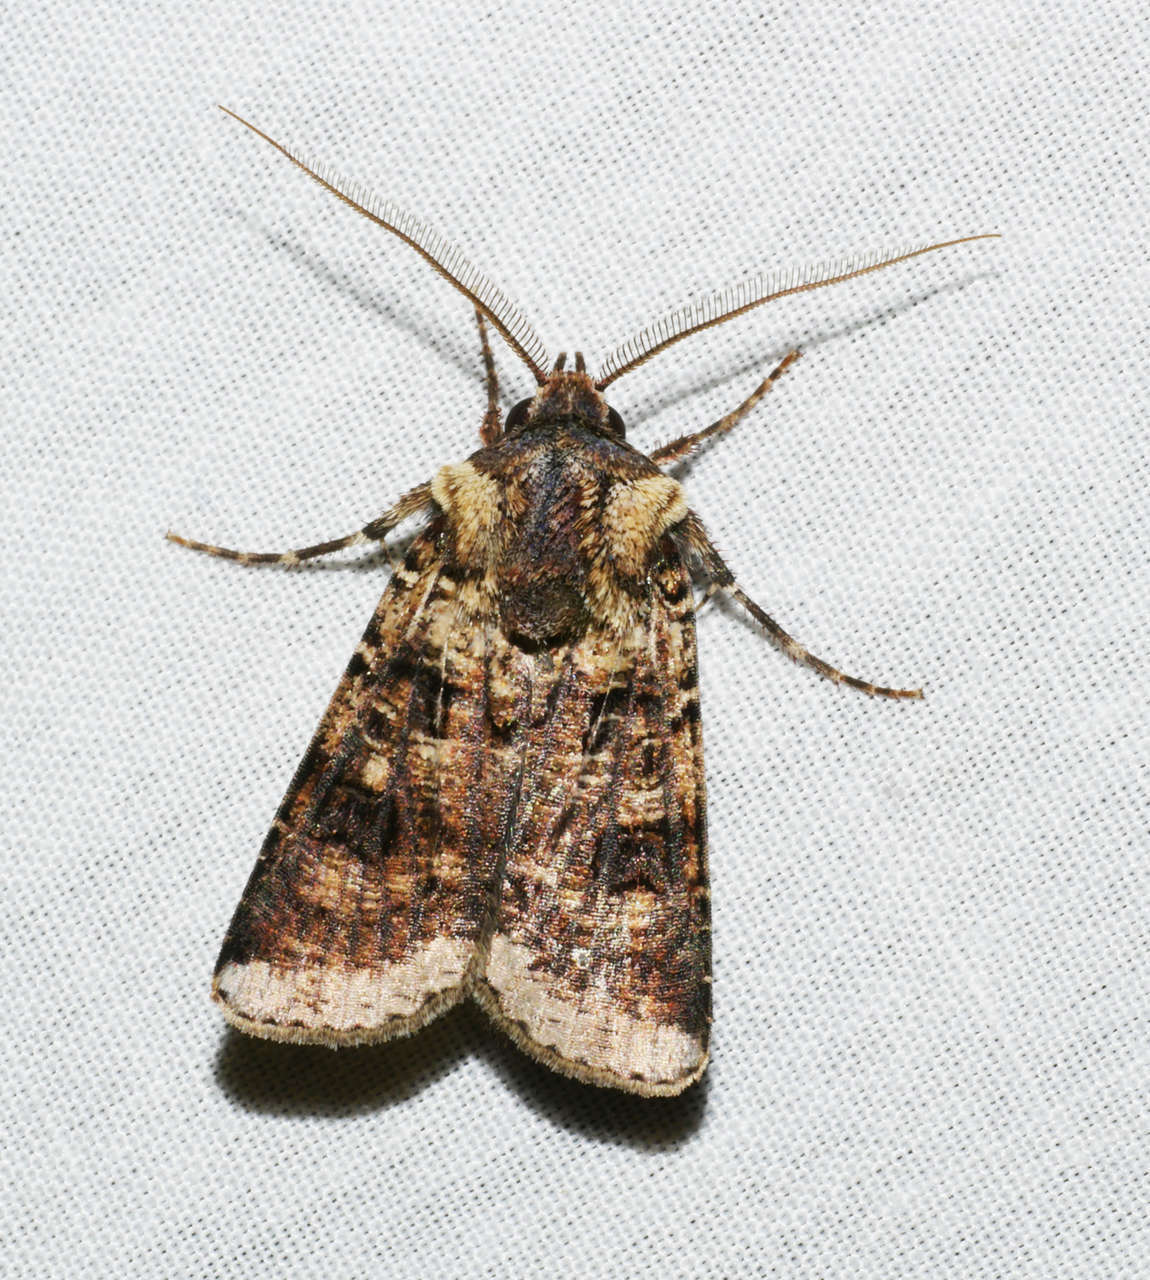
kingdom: Animalia
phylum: Arthropoda
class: Insecta
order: Lepidoptera
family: Noctuidae
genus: Agrotis
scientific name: Agrotis porphyricollis
